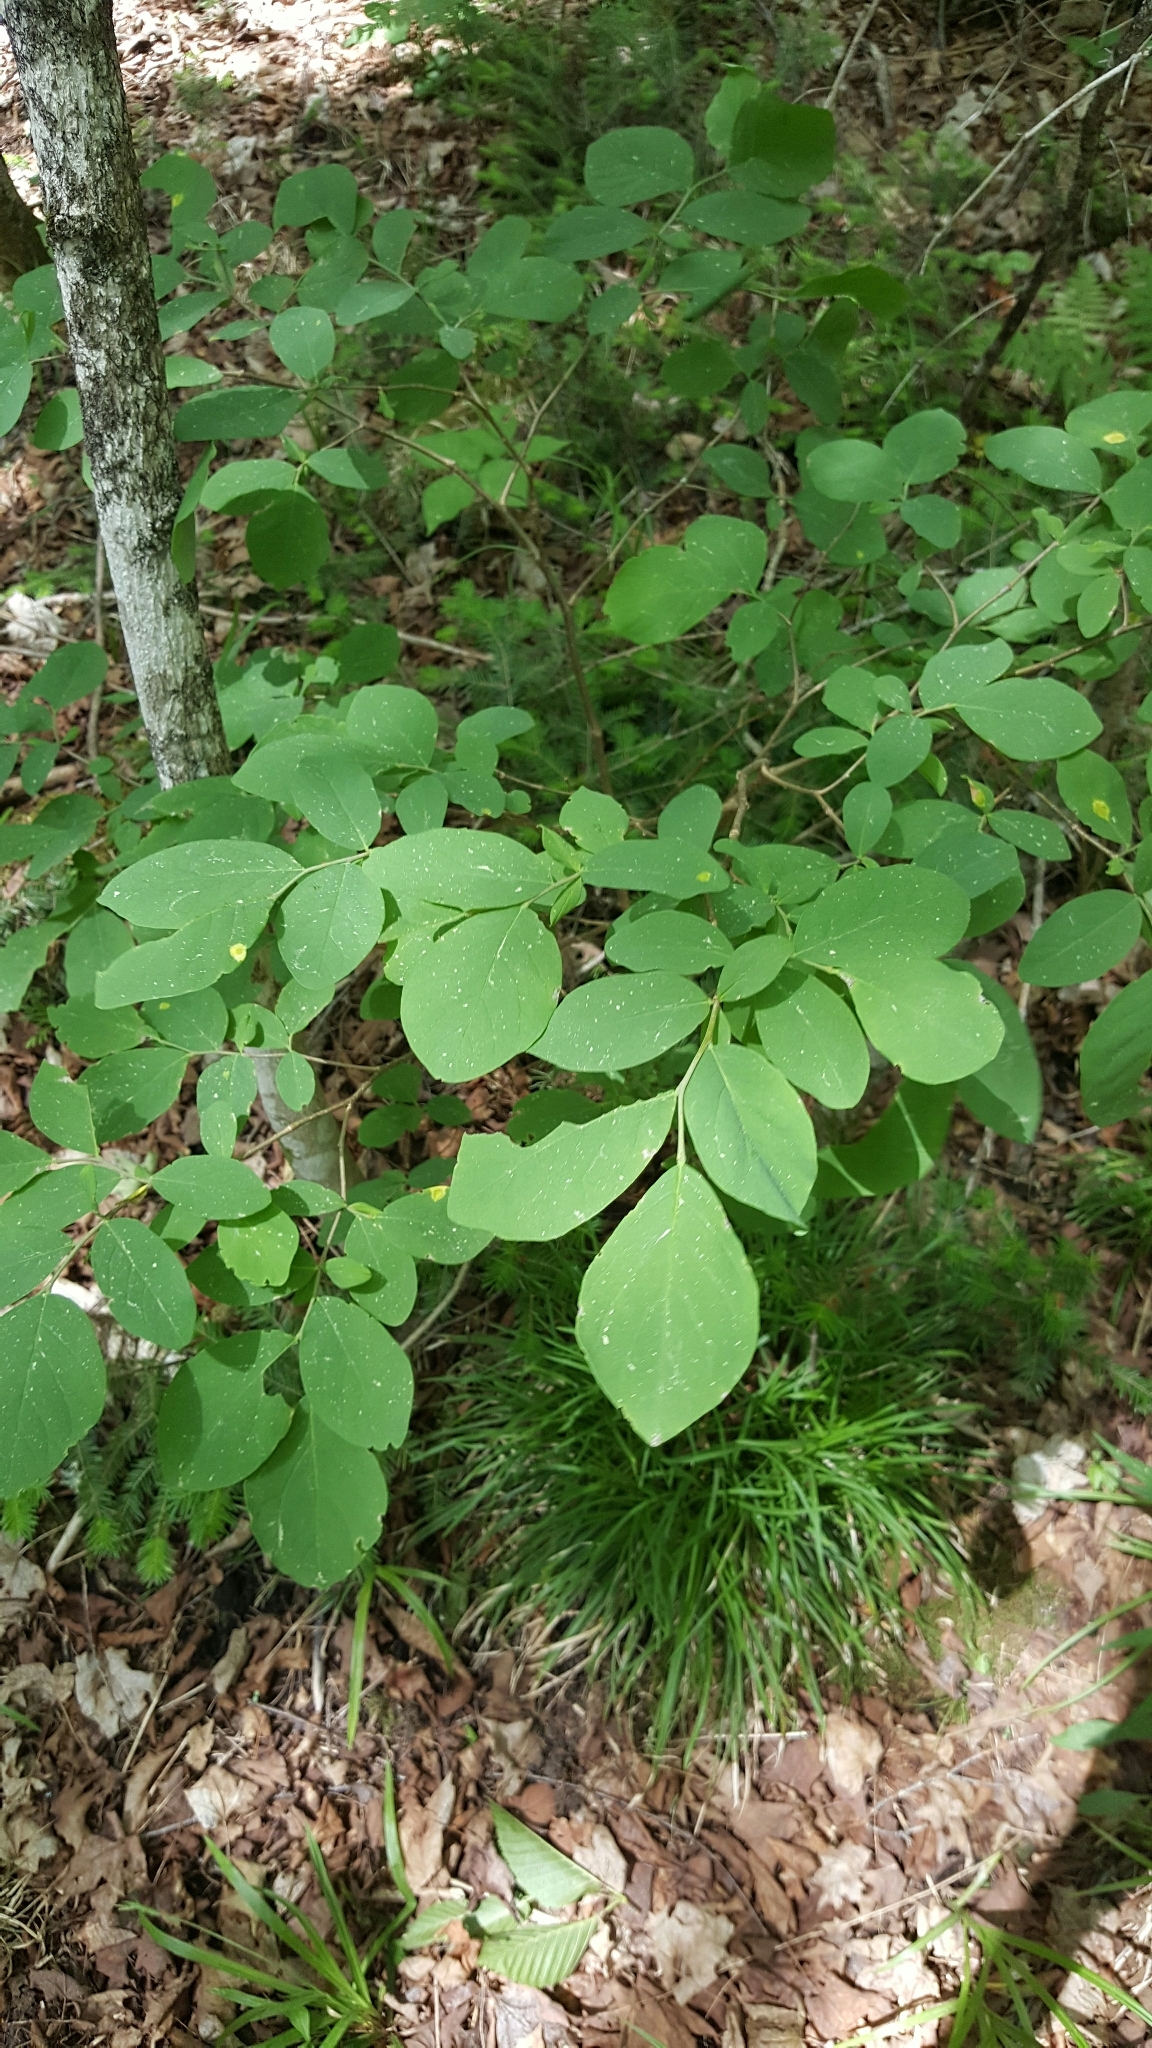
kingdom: Plantae
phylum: Tracheophyta
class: Magnoliopsida
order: Malvales
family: Thymelaeaceae
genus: Dirca
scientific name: Dirca palustris
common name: Leatherwood
